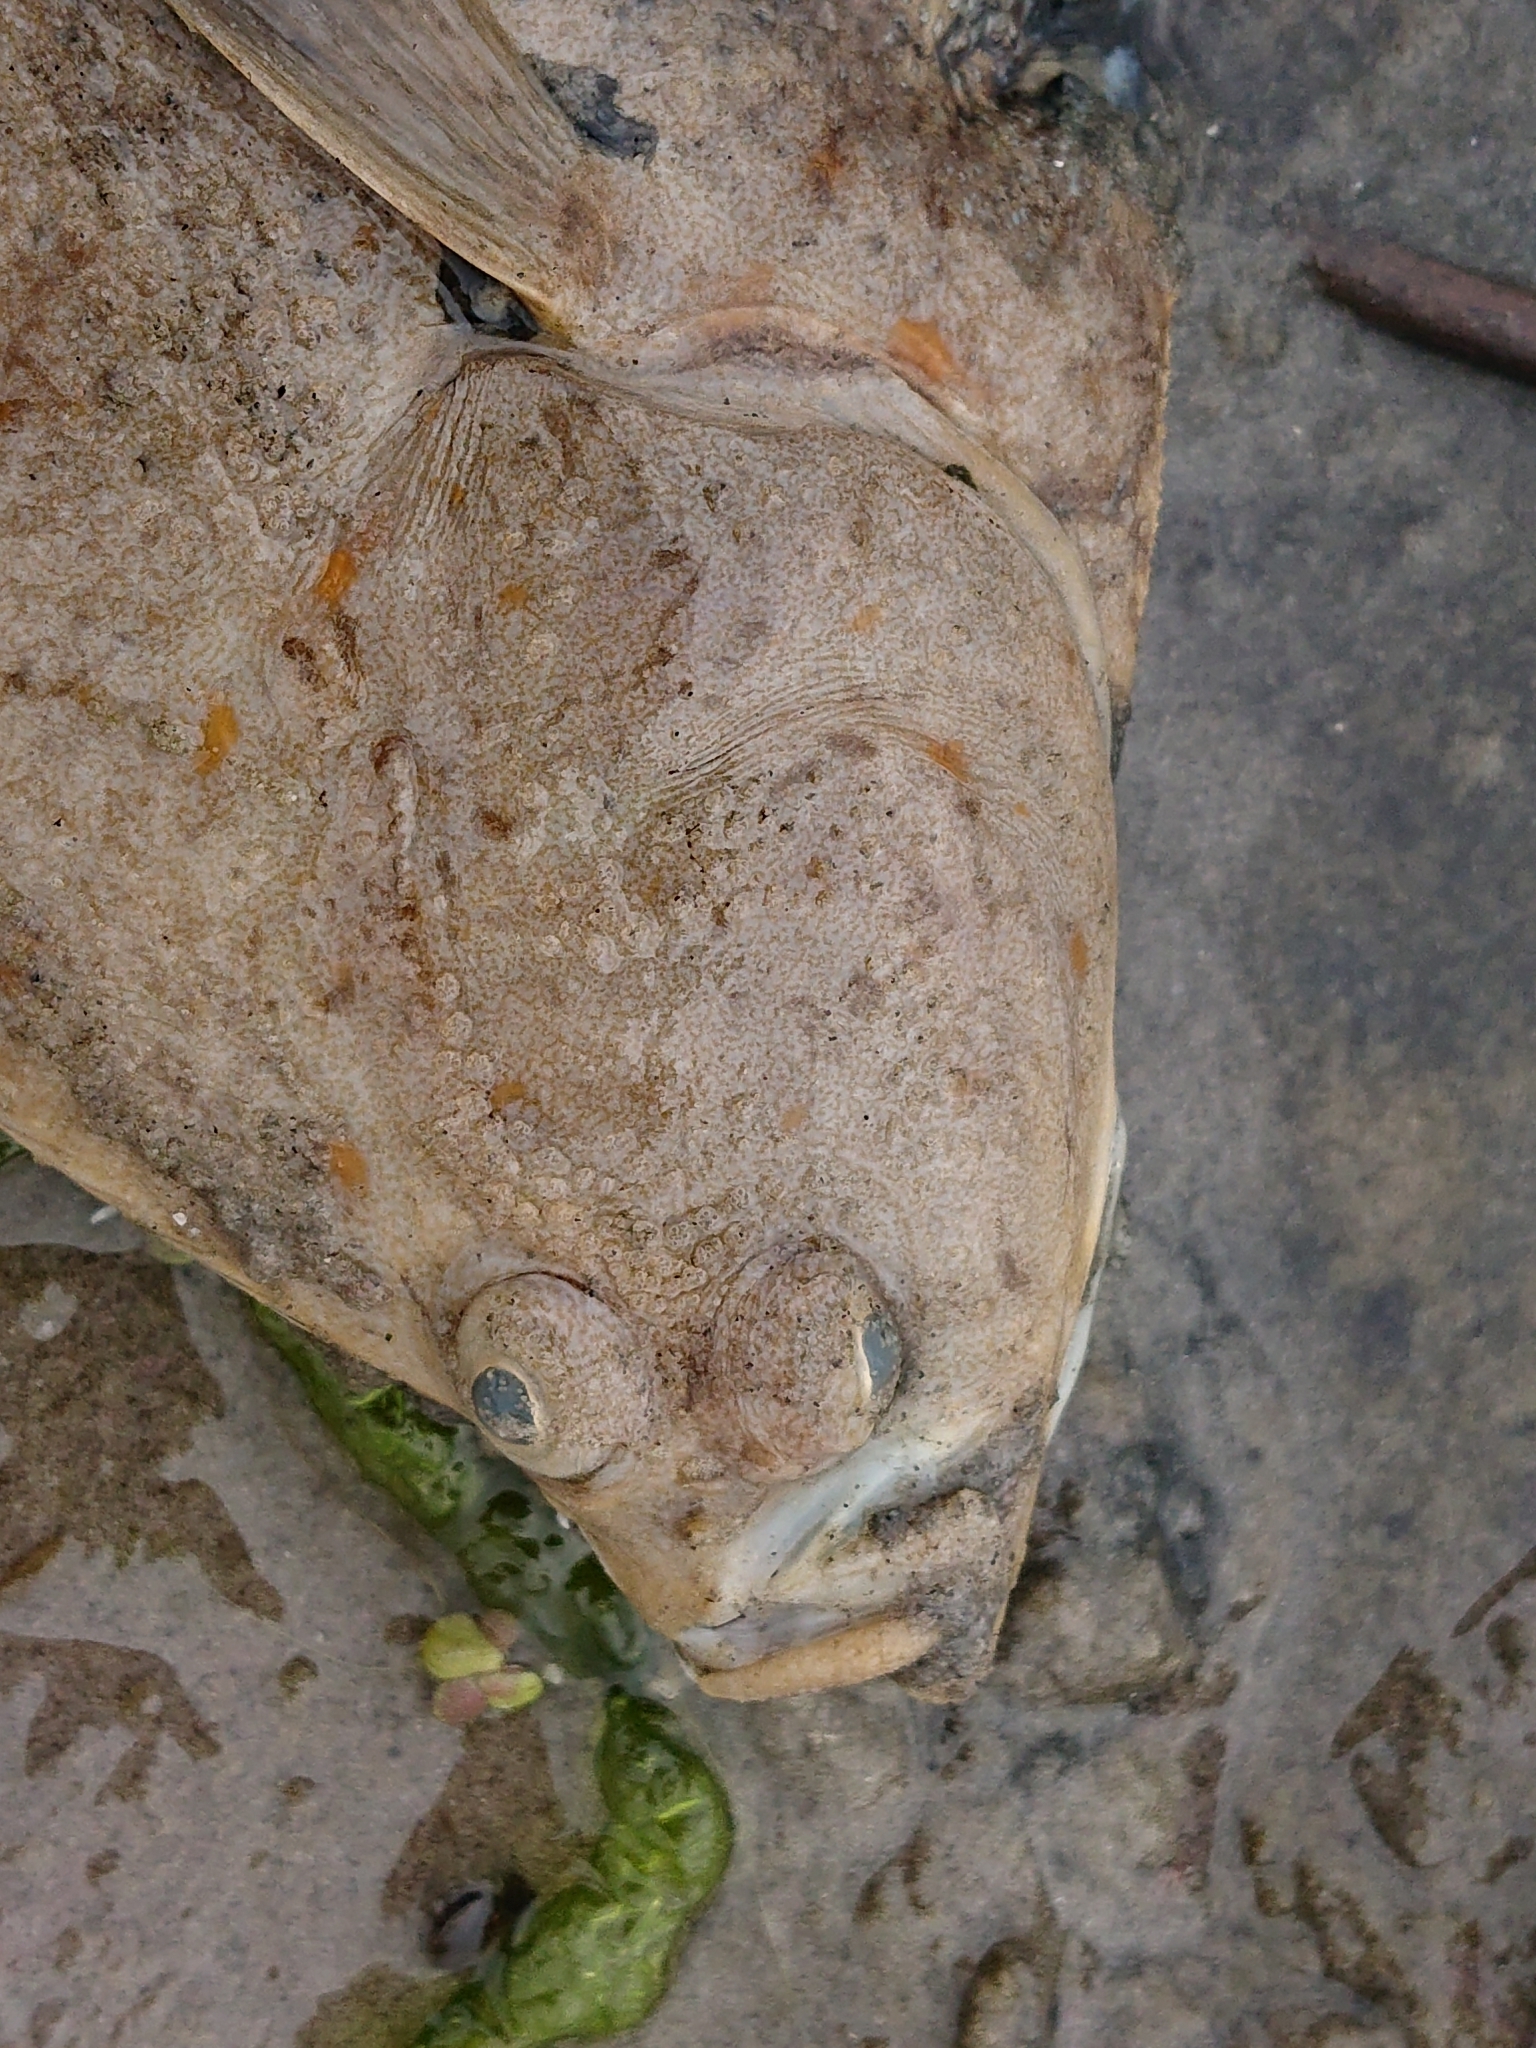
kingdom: Animalia
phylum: Chordata
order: Pleuronectiformes
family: Pleuronectidae
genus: Pleuronectes
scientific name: Pleuronectes platessa
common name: Plaice
